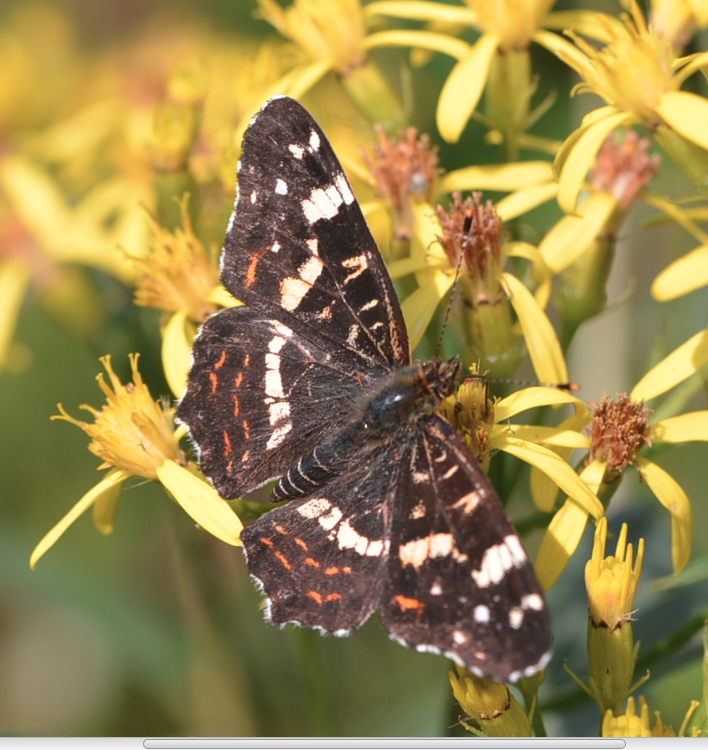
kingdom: Animalia
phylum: Arthropoda
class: Insecta
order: Lepidoptera
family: Nymphalidae
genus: Araschnia
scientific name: Araschnia levana
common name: Map butterfly
